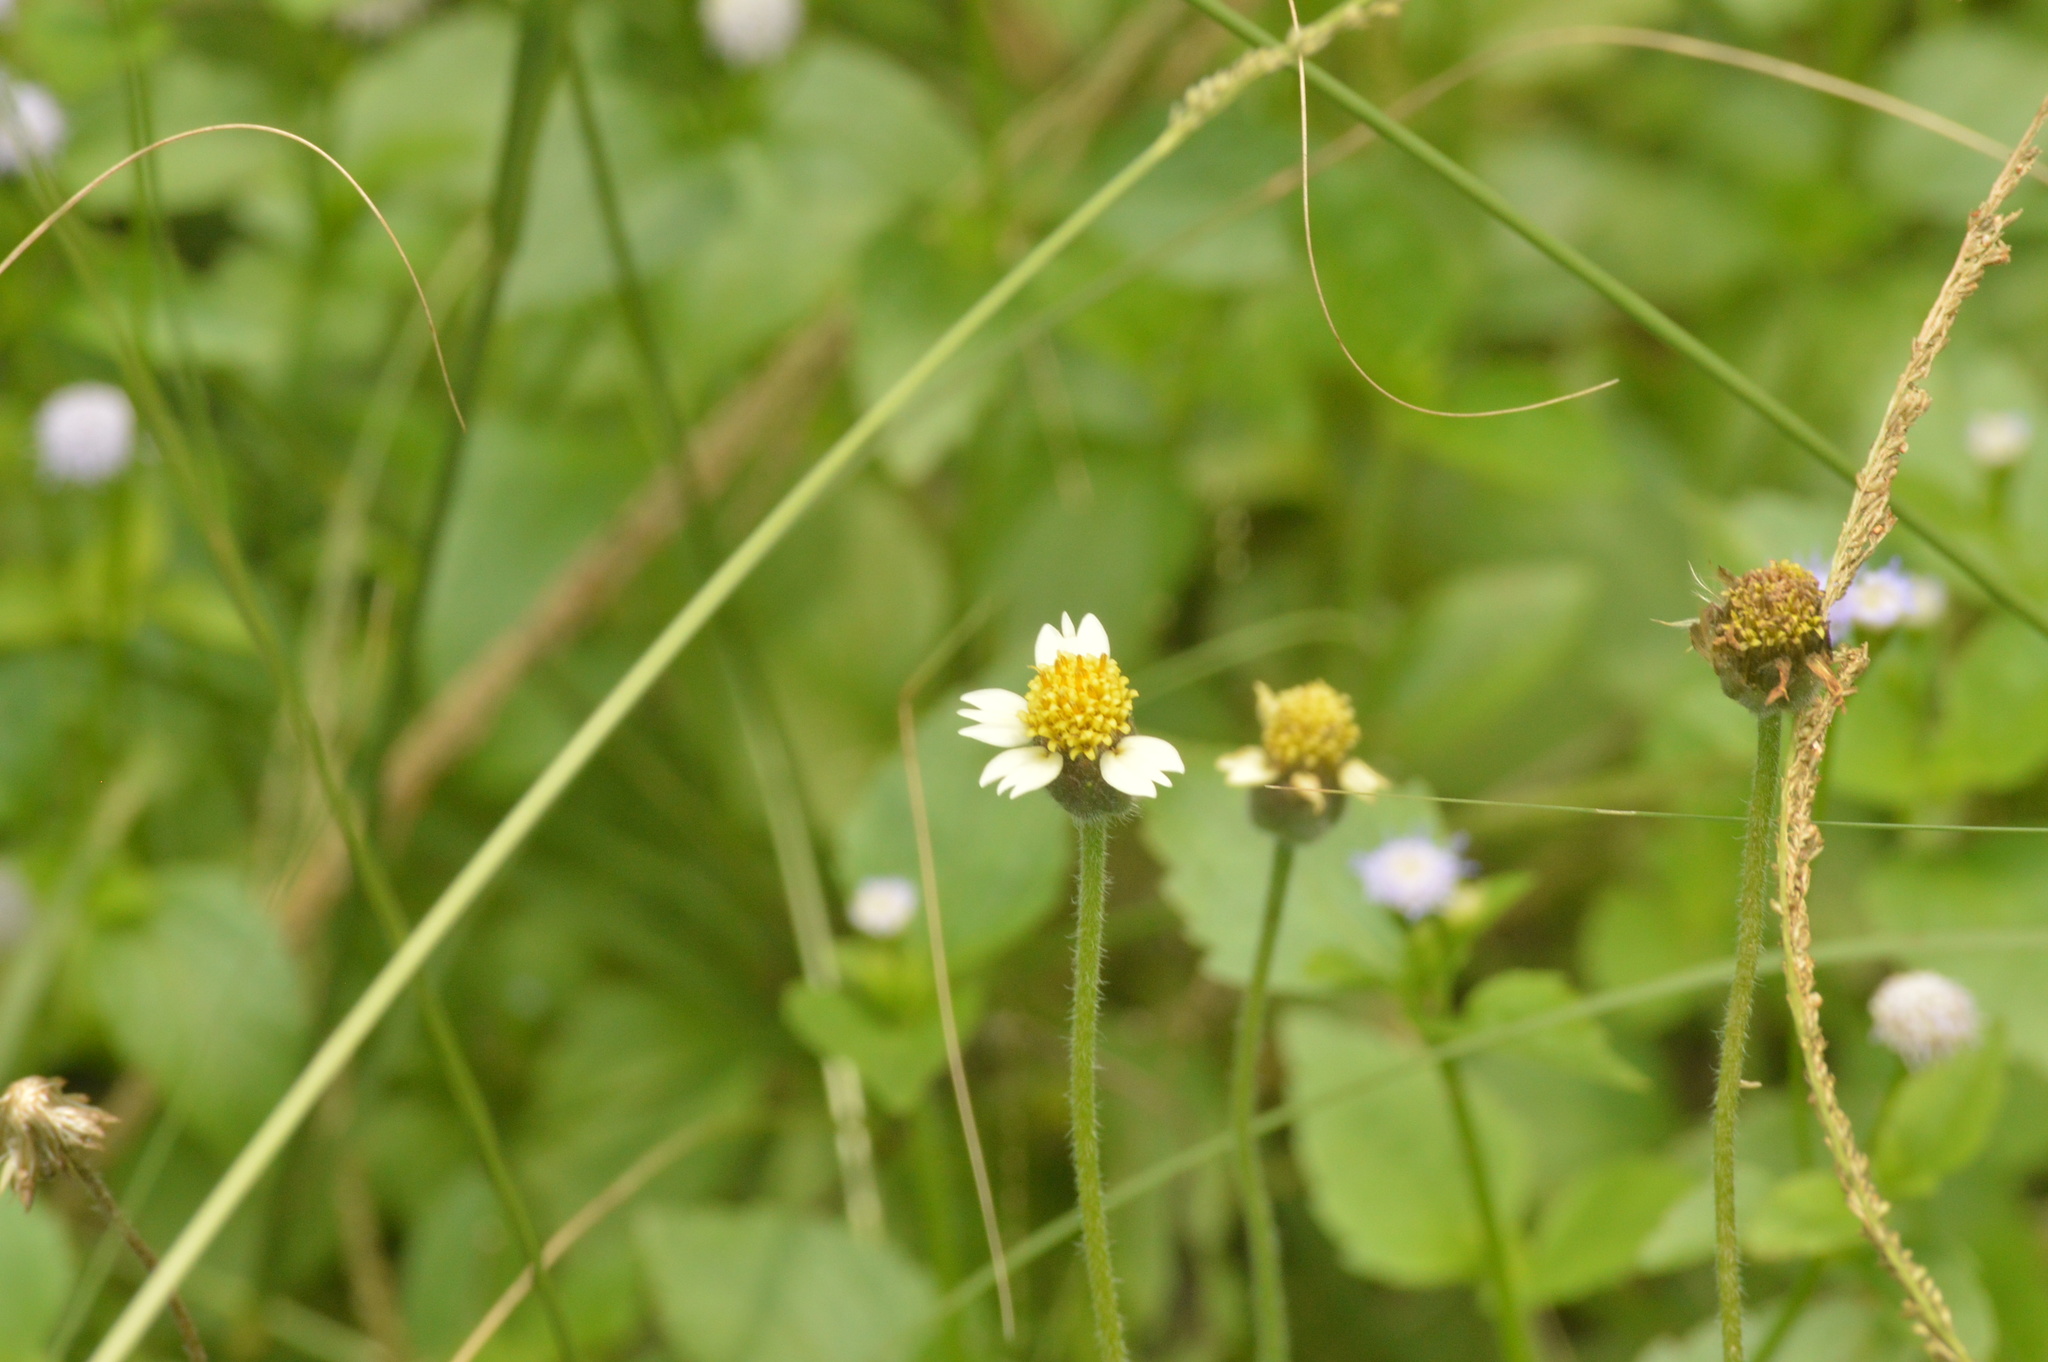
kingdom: Plantae
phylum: Tracheophyta
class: Magnoliopsida
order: Asterales
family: Asteraceae
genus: Tridax
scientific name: Tridax procumbens
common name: Coatbuttons
